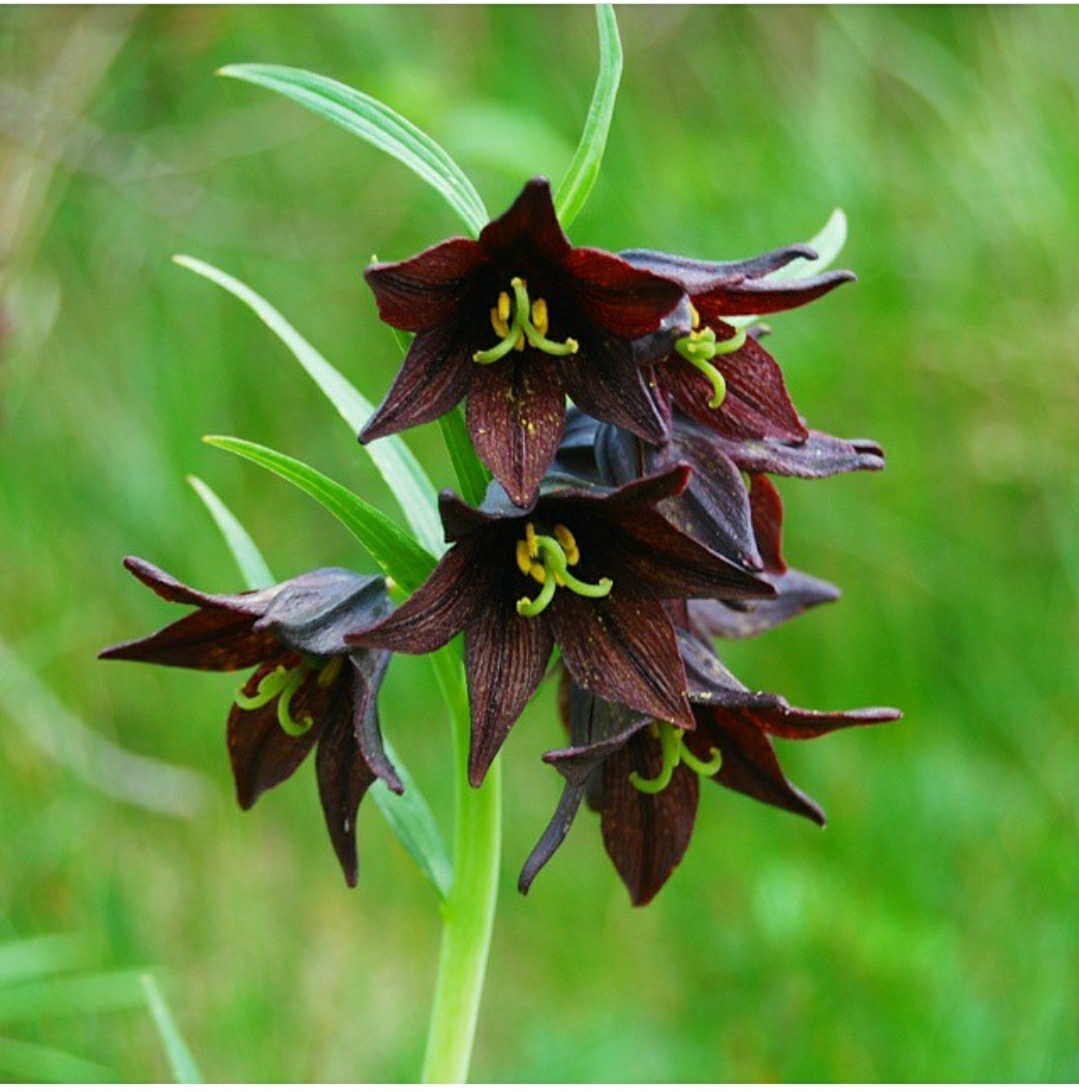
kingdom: Plantae
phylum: Tracheophyta
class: Liliopsida
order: Liliales
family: Liliaceae
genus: Fritillaria
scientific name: Fritillaria camschatcensis
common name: Kamchatka fritillary
